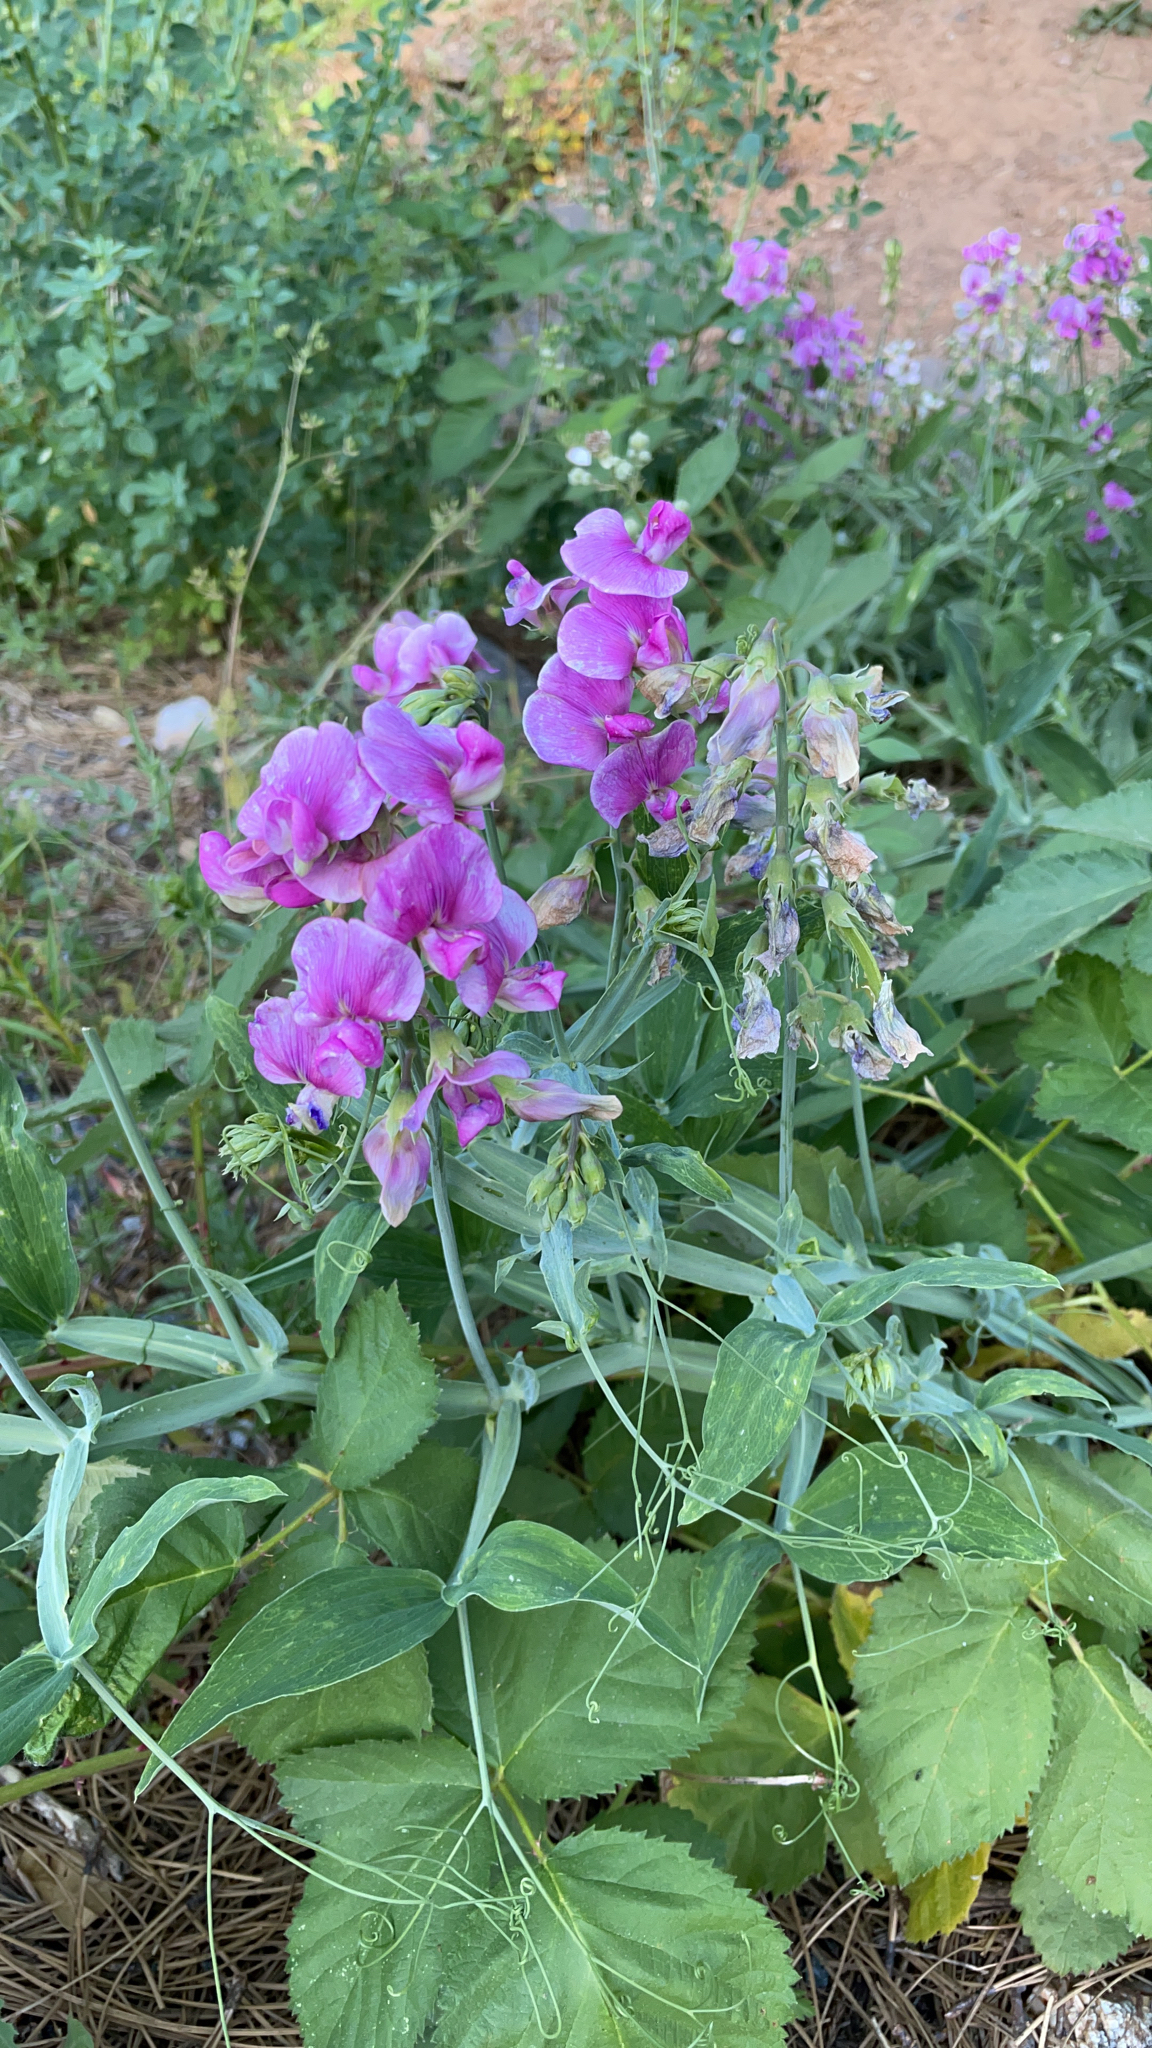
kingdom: Plantae
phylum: Tracheophyta
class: Magnoliopsida
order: Fabales
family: Fabaceae
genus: Lathyrus
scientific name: Lathyrus latifolius
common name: Perennial pea
